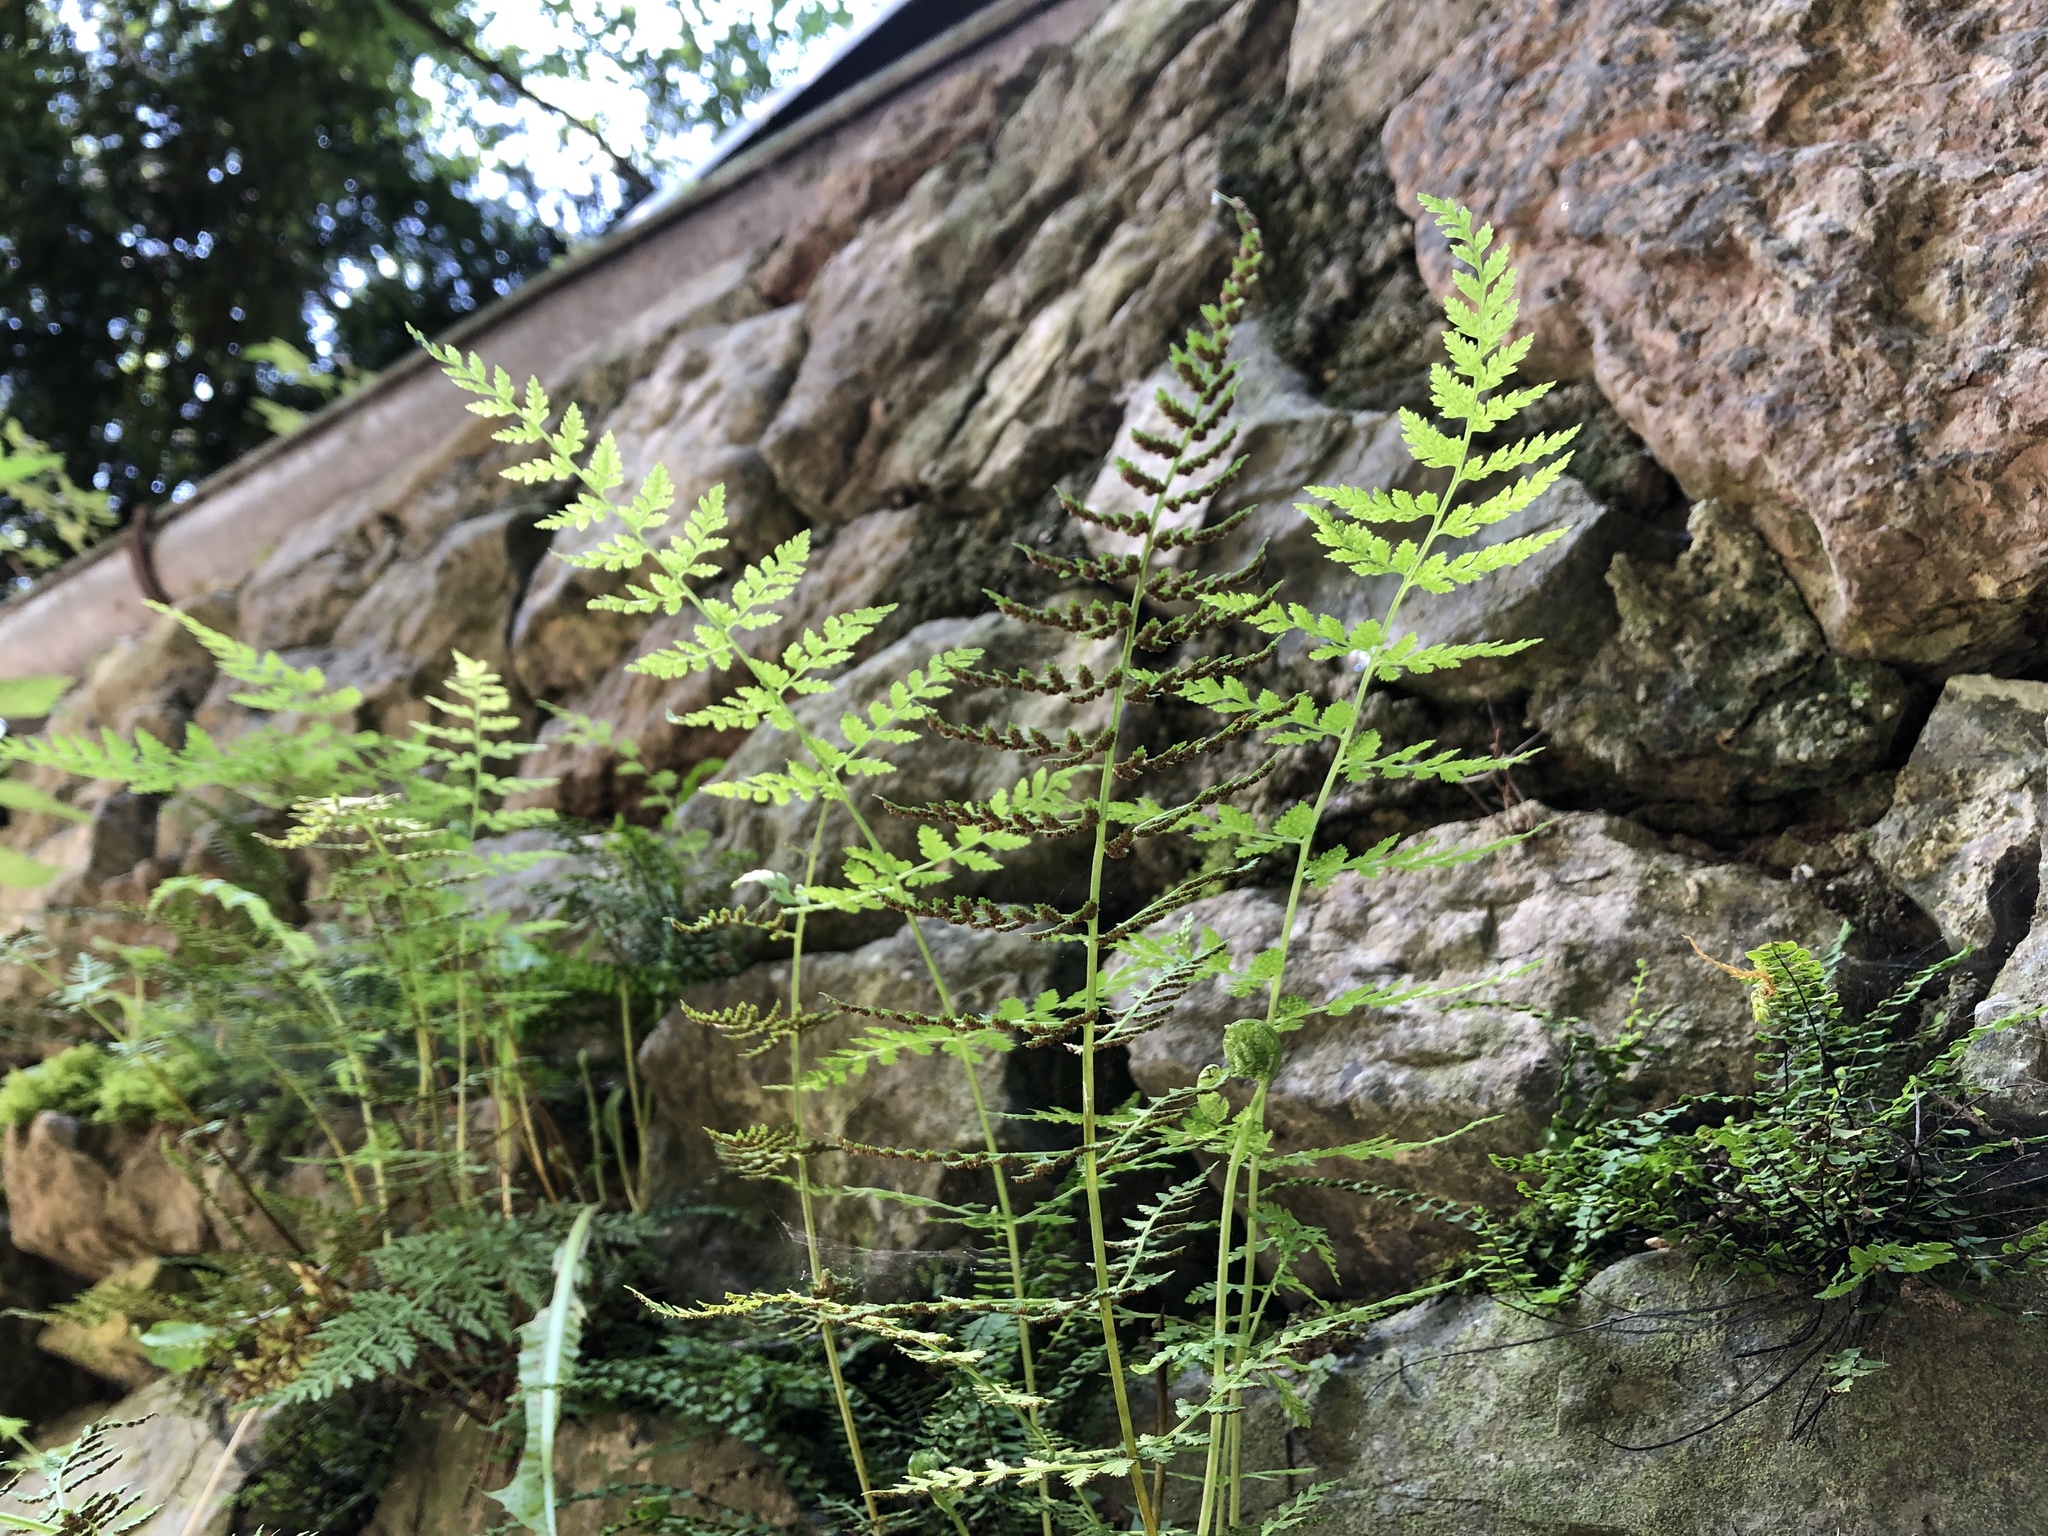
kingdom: Plantae
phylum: Tracheophyta
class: Polypodiopsida
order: Polypodiales
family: Cystopteridaceae
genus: Cystopteris
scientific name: Cystopteris fragilis
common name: Brittle bladder fern
